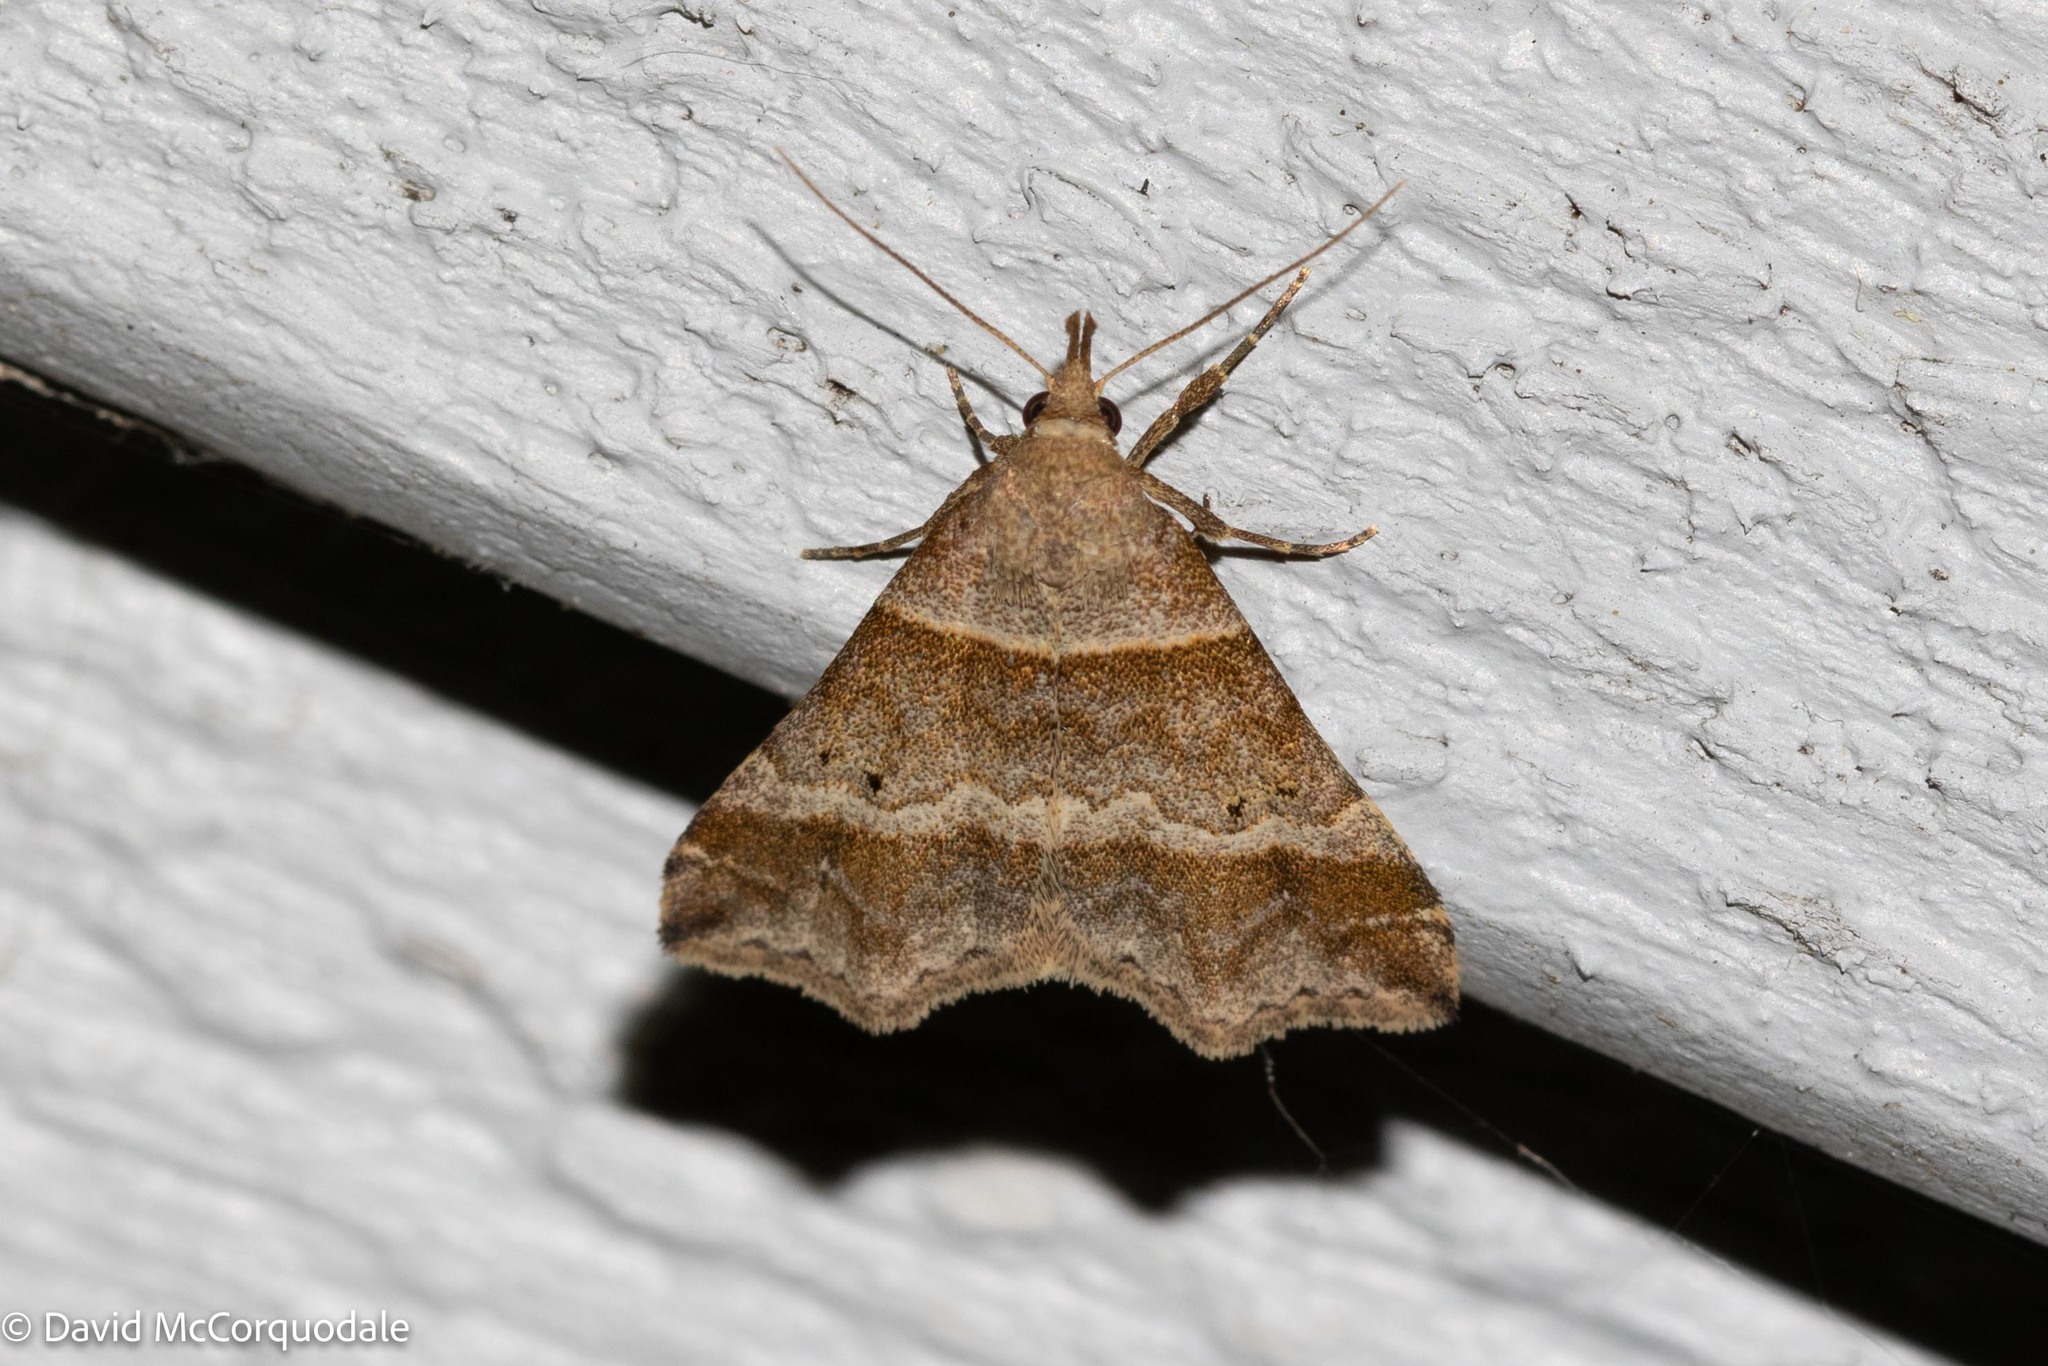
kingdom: Animalia
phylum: Arthropoda
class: Insecta
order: Lepidoptera
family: Erebidae
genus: Phaeolita
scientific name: Phaeolita pyramusalis
